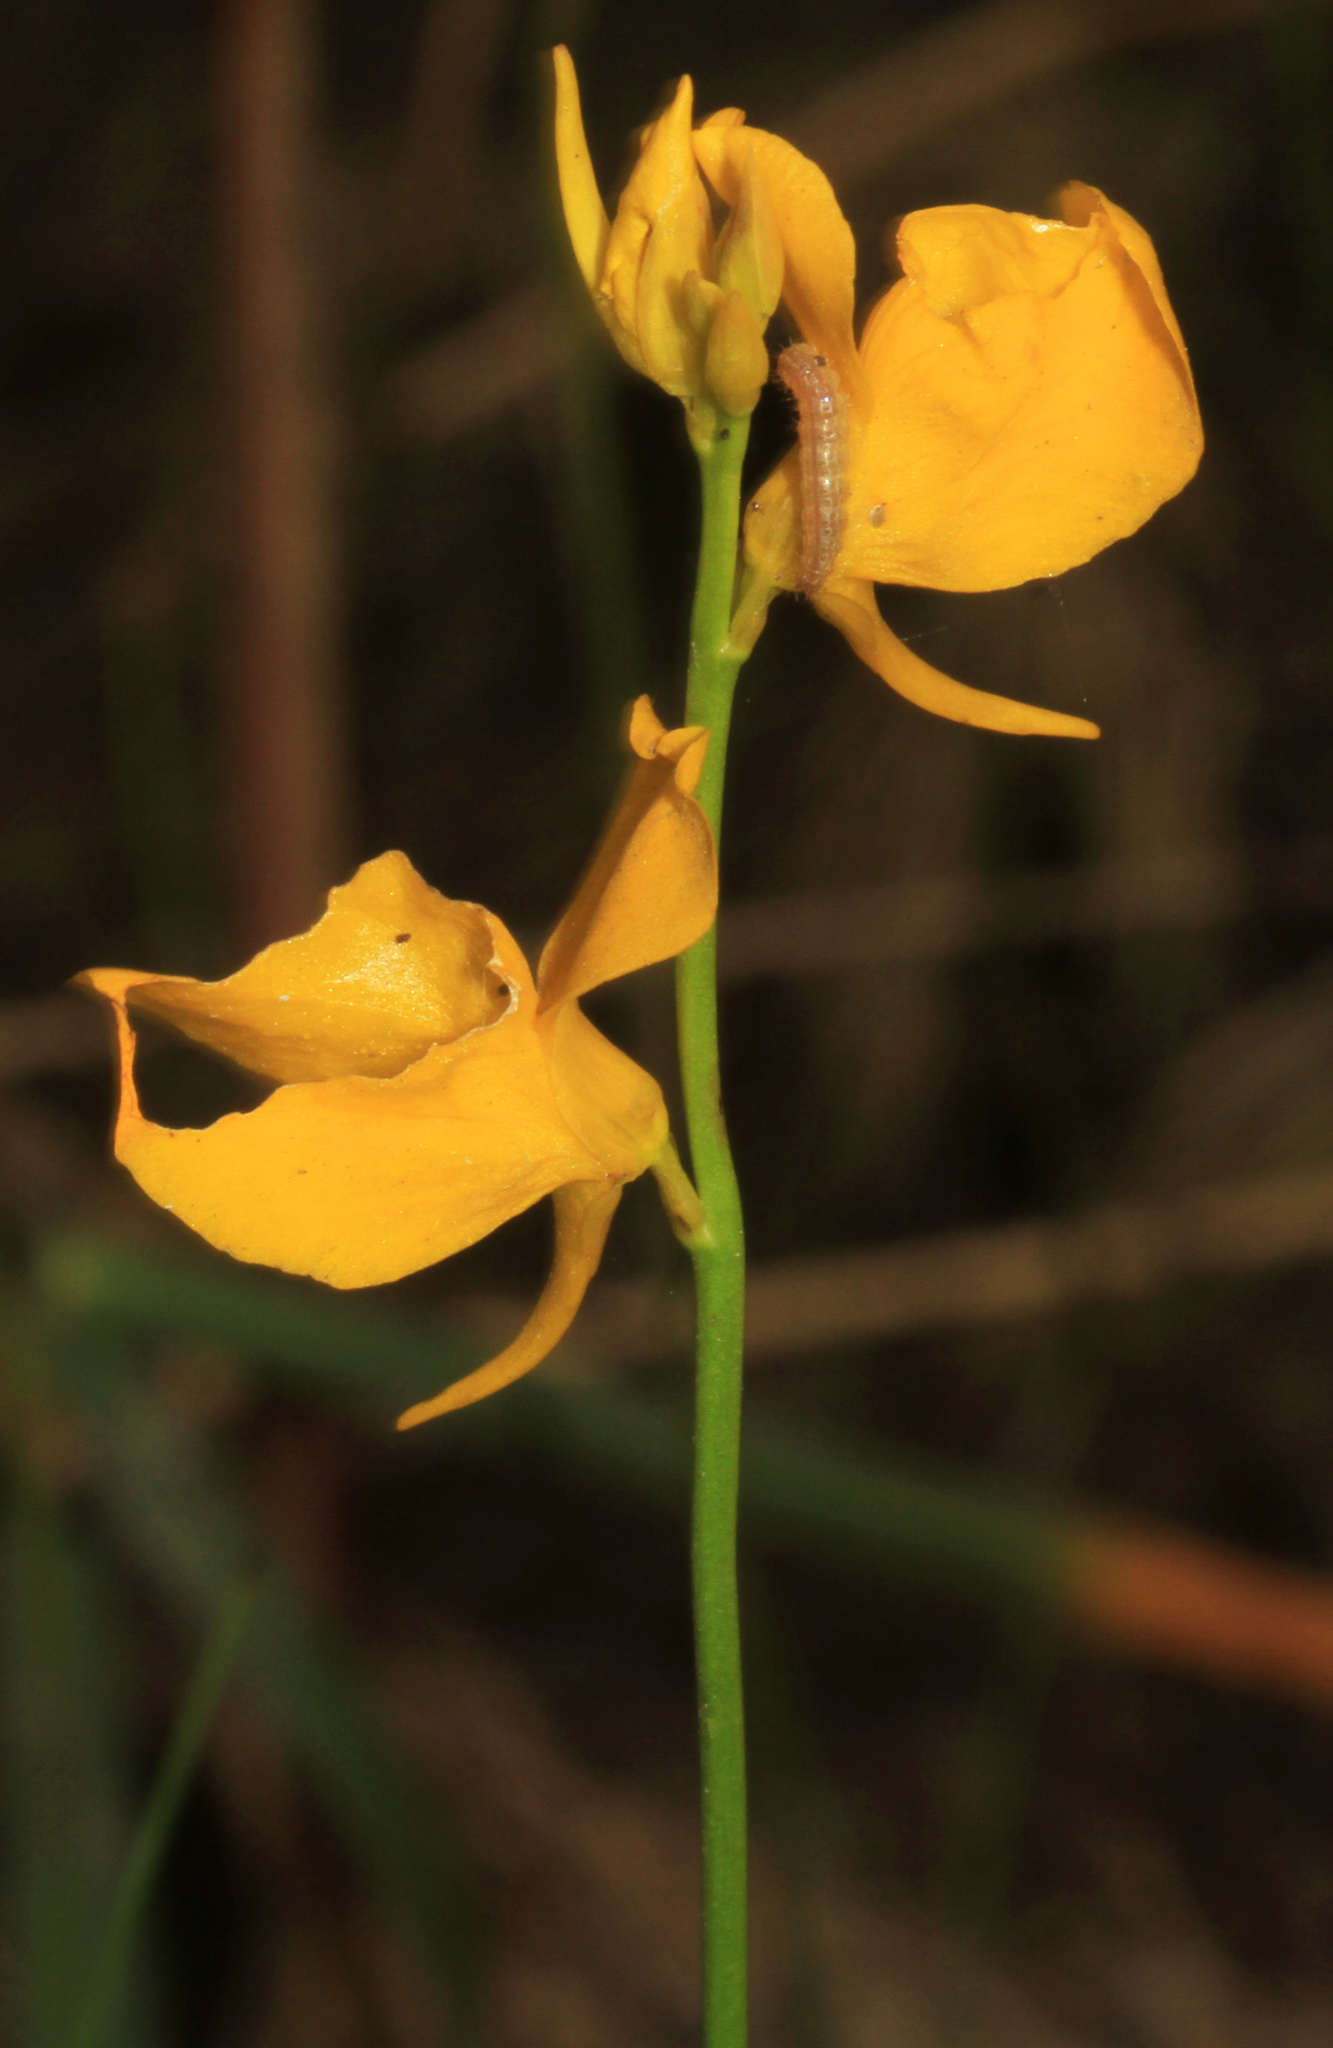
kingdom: Plantae
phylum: Tracheophyta
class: Magnoliopsida
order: Lamiales
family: Lentibulariaceae
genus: Utricularia
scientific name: Utricularia cornuta
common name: Horned bladderwort
